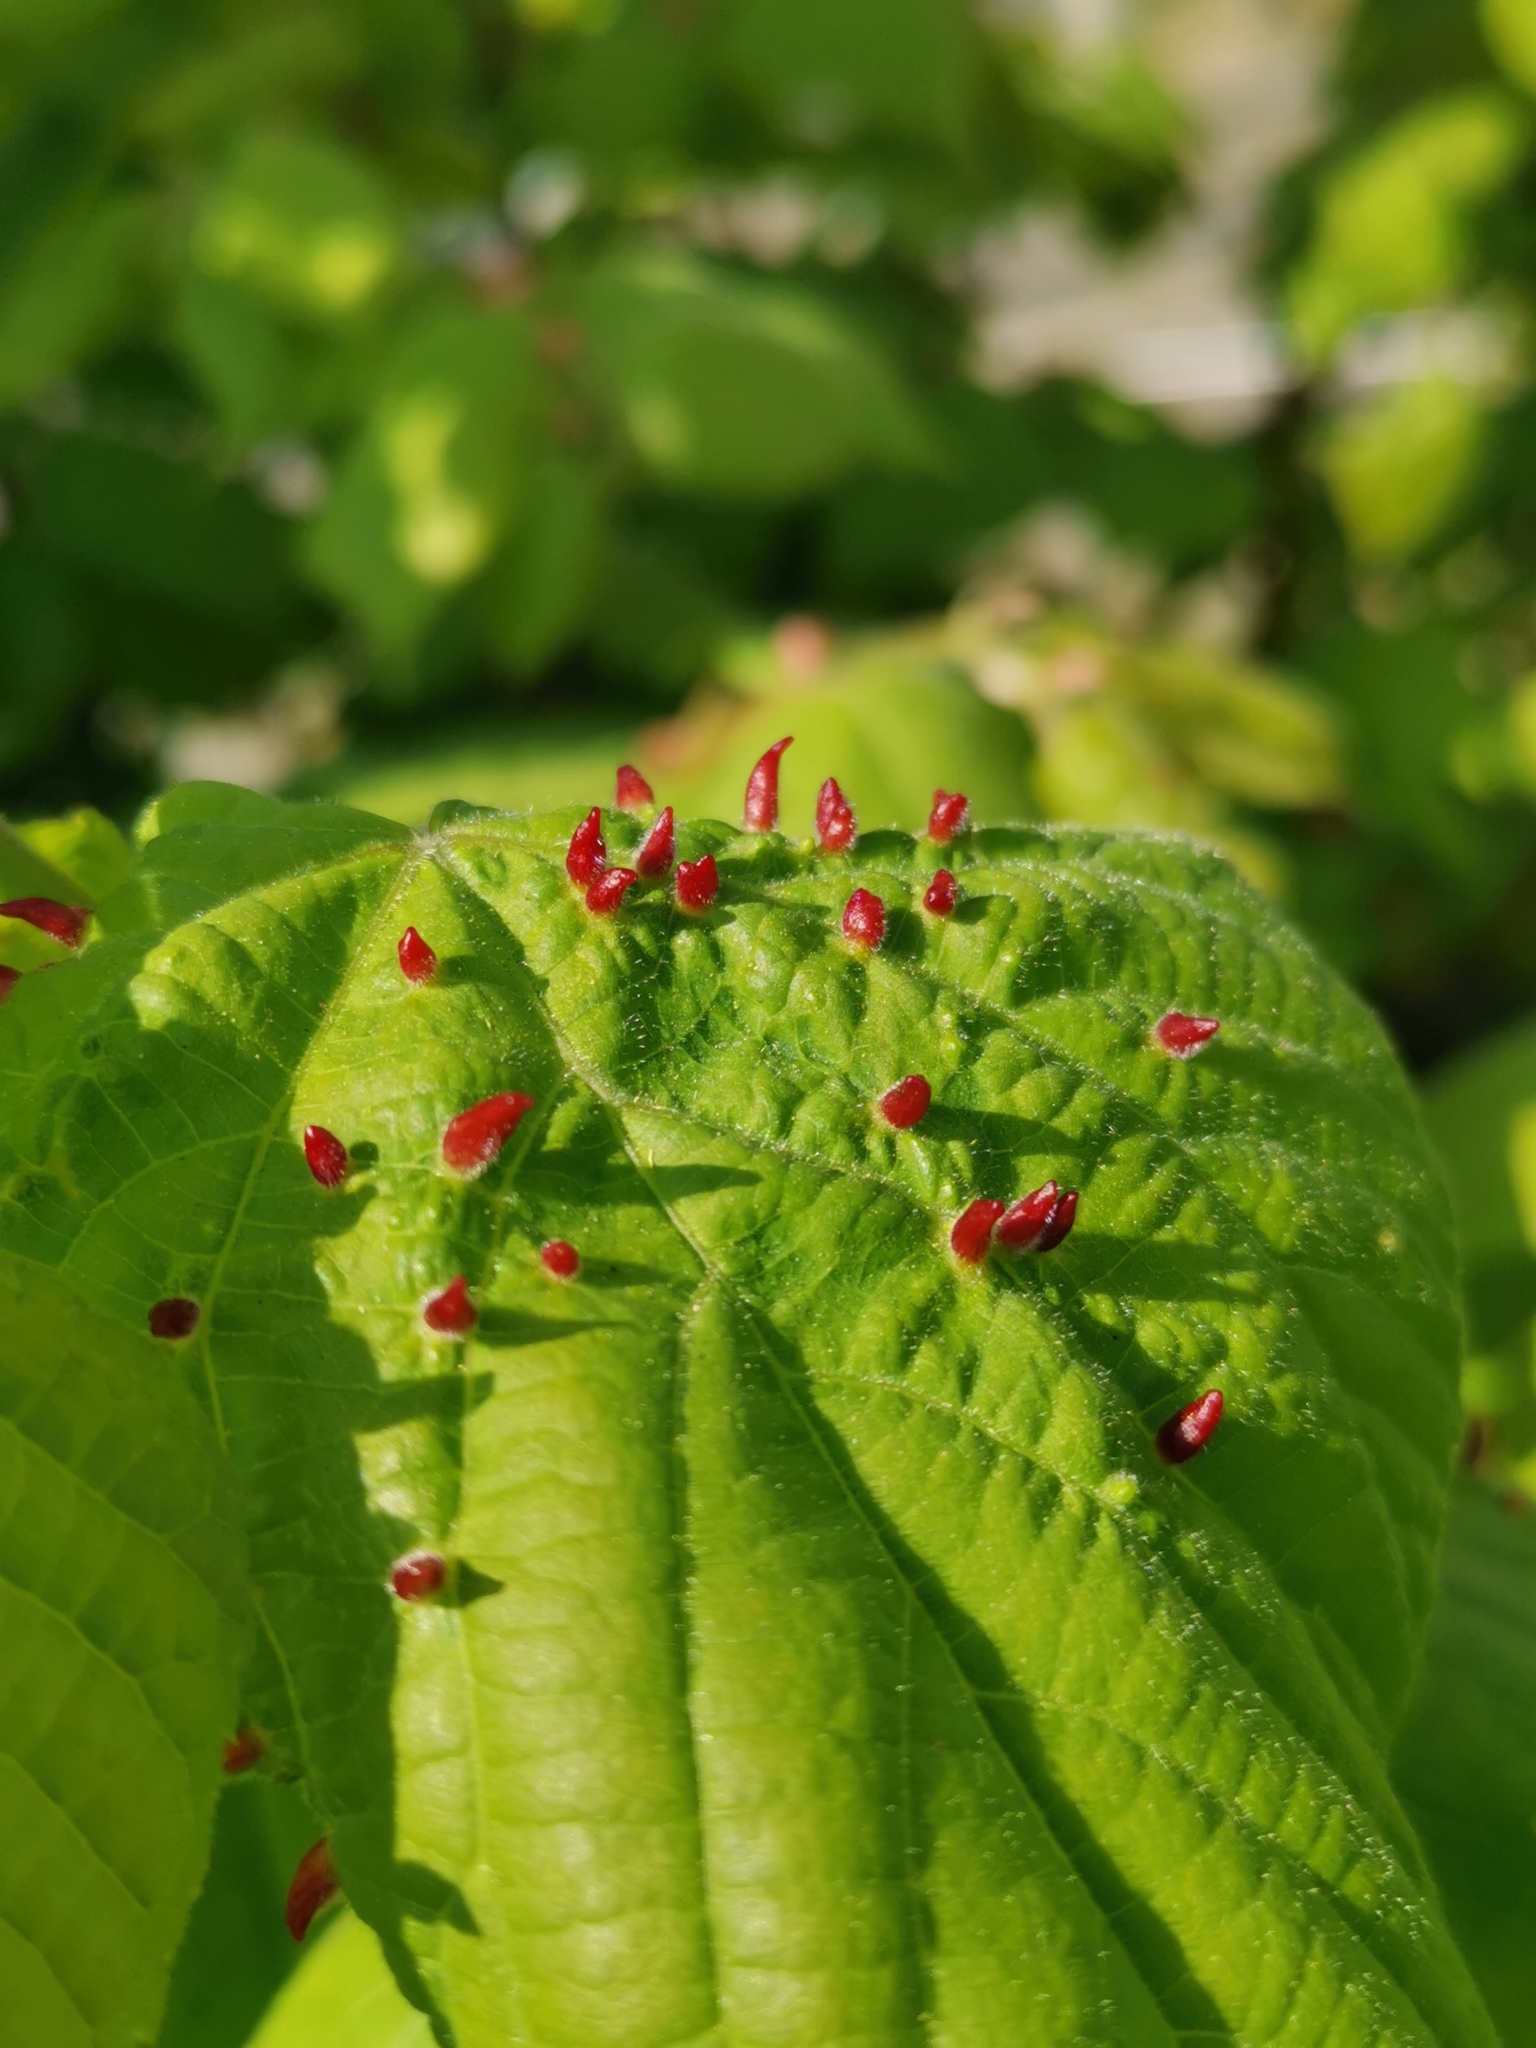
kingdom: Animalia
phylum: Arthropoda
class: Arachnida
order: Trombidiformes
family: Eriophyidae
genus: Eriophyes
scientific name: Eriophyes tiliae
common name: Red nail gall mite
